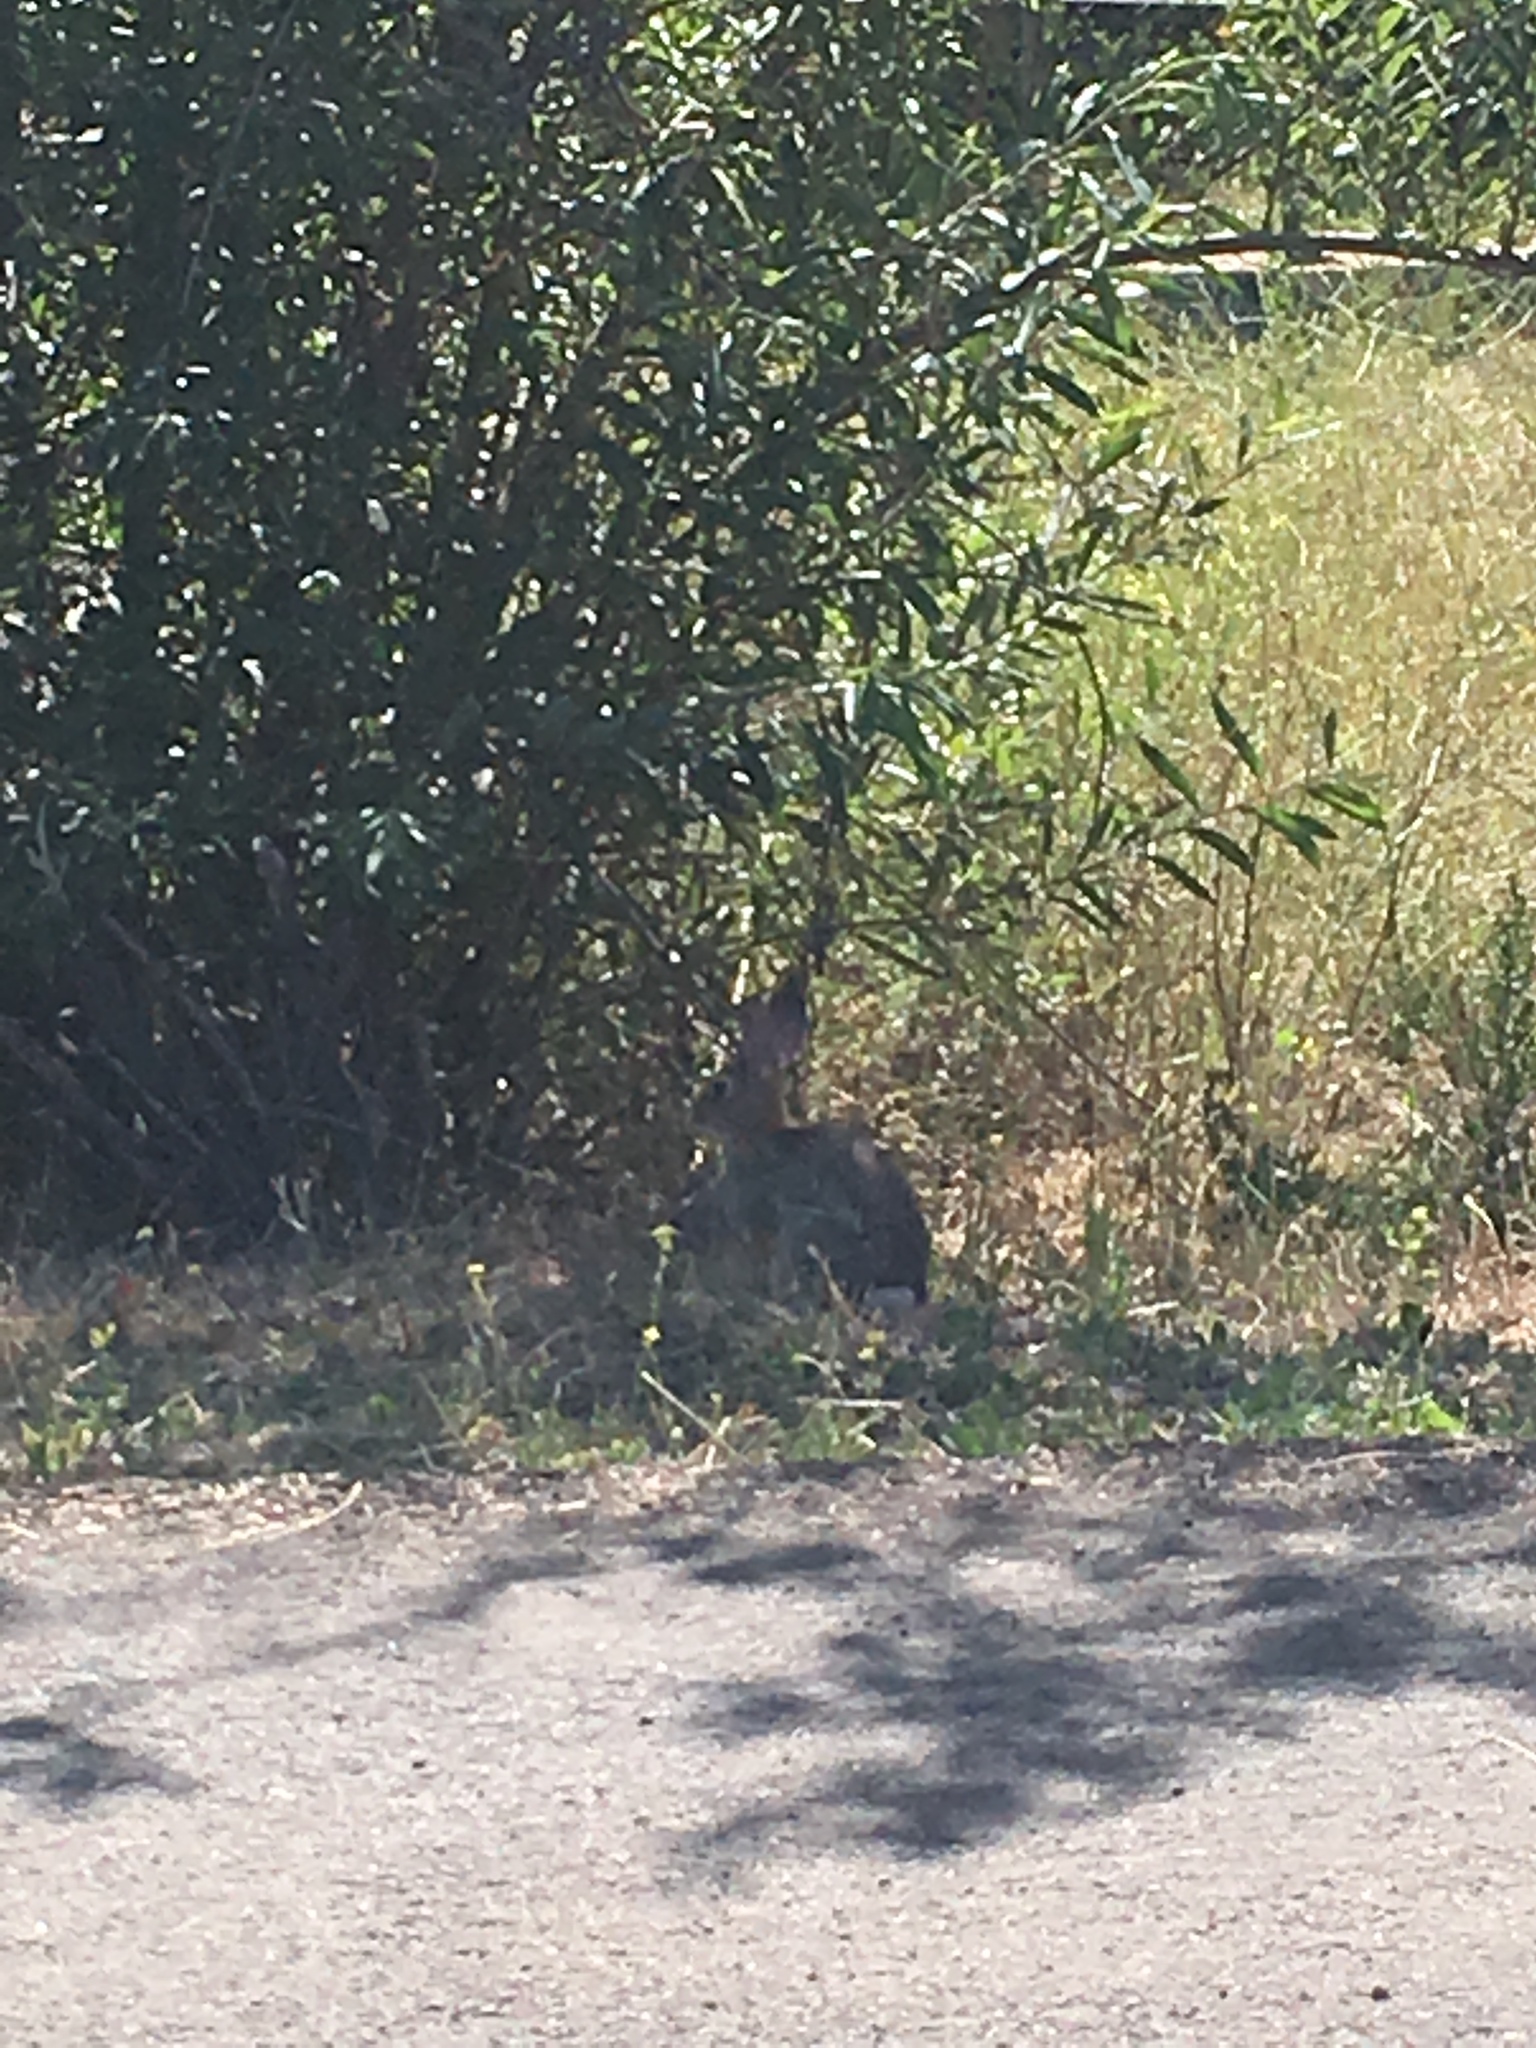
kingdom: Animalia
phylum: Chordata
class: Mammalia
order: Lagomorpha
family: Leporidae
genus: Sylvilagus
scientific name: Sylvilagus audubonii
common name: Desert cottontail
